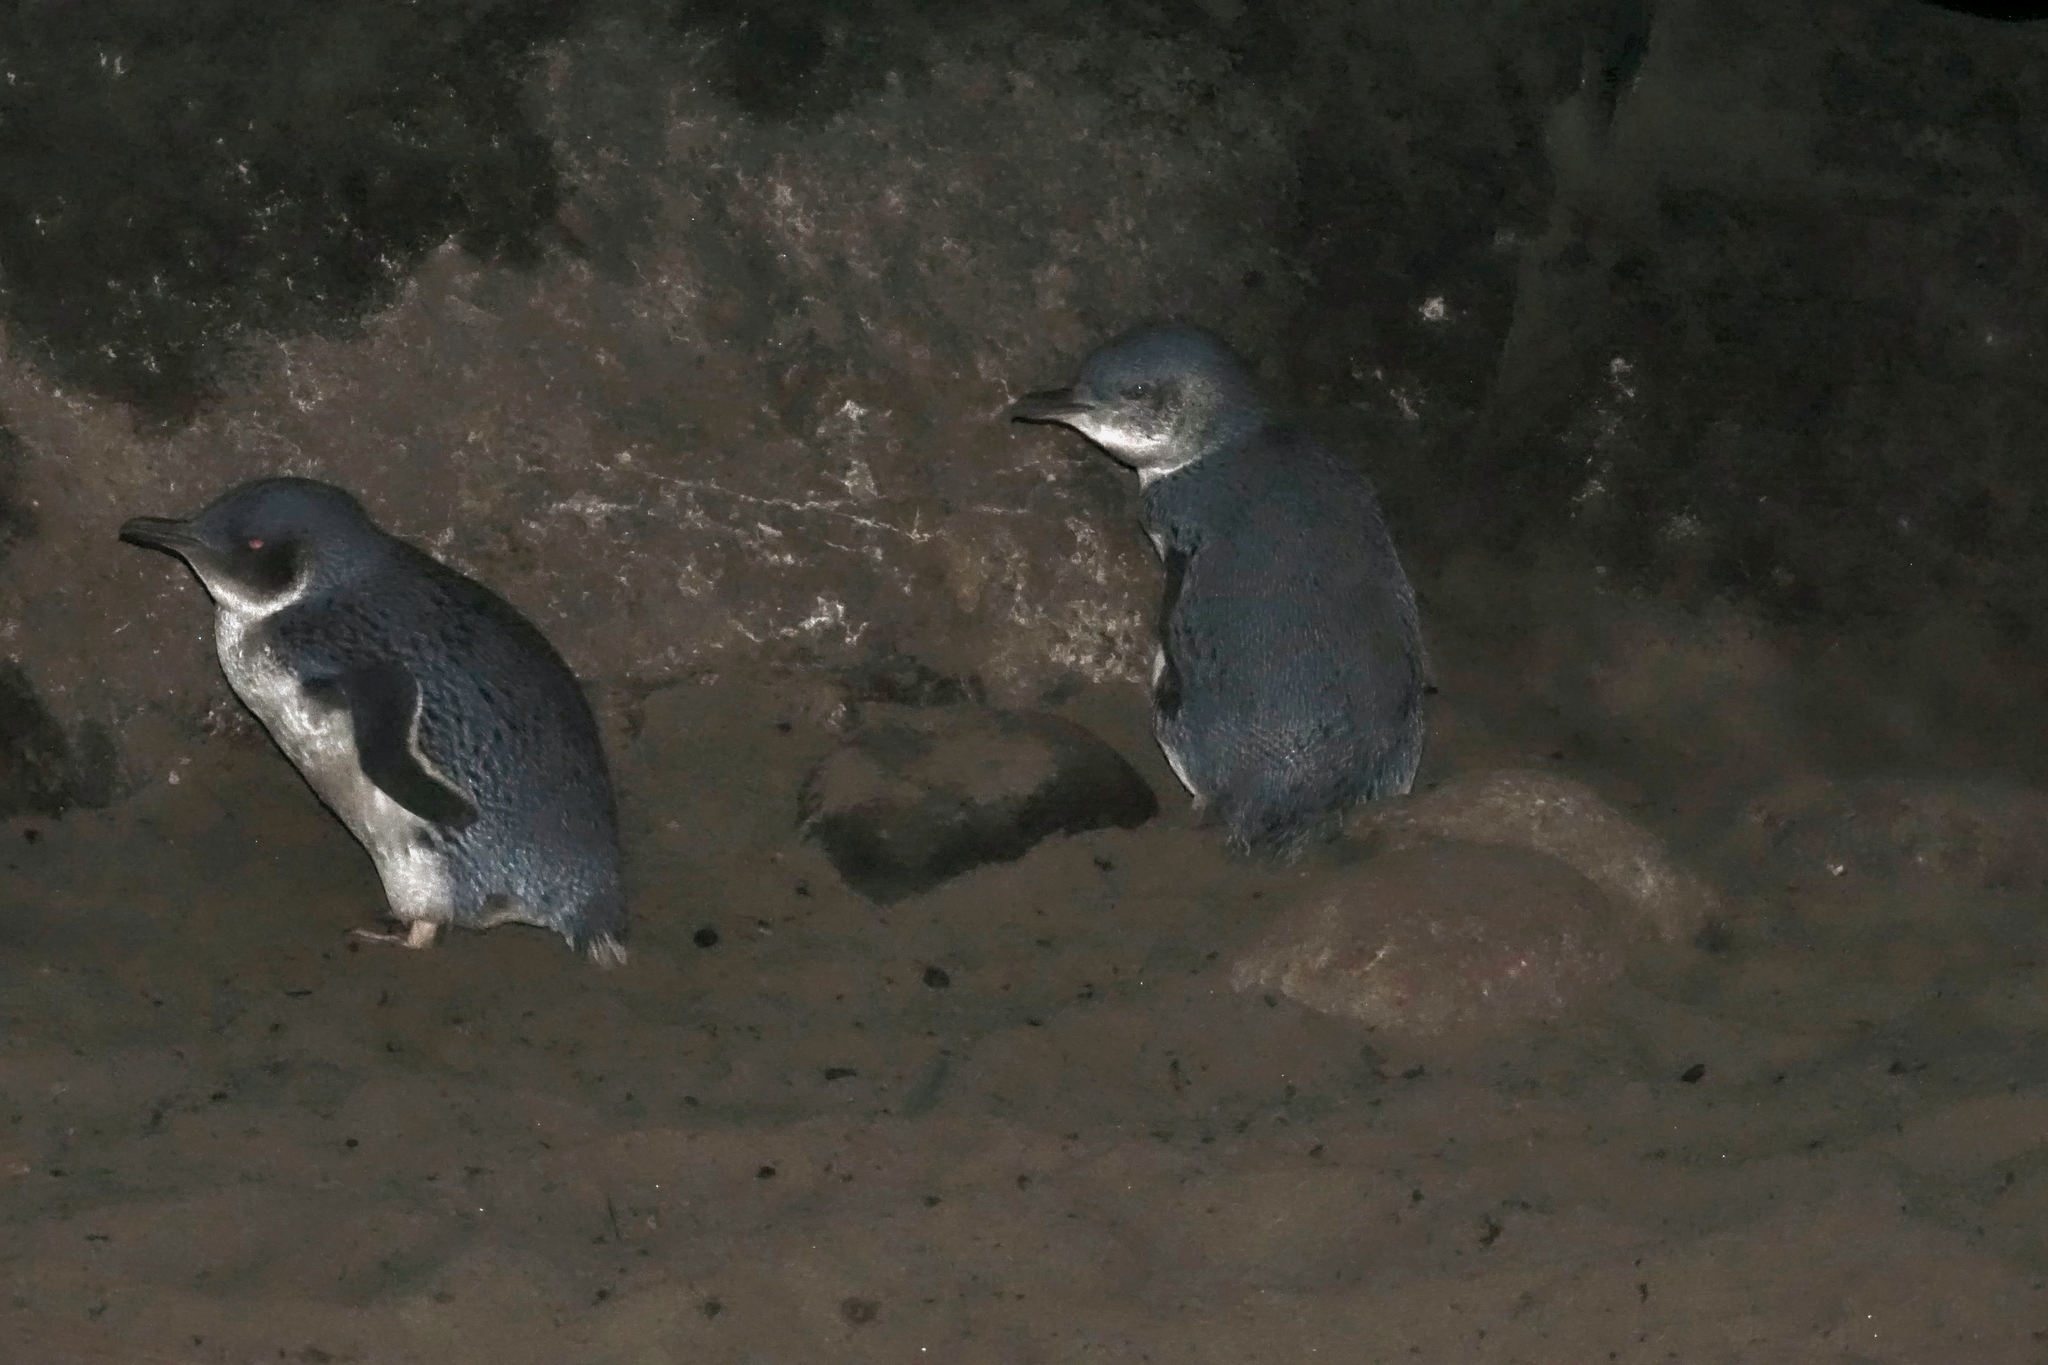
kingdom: Animalia
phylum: Chordata
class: Aves
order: Sphenisciformes
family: Spheniscidae
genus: Eudyptula
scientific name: Eudyptula minor
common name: Little penguin
